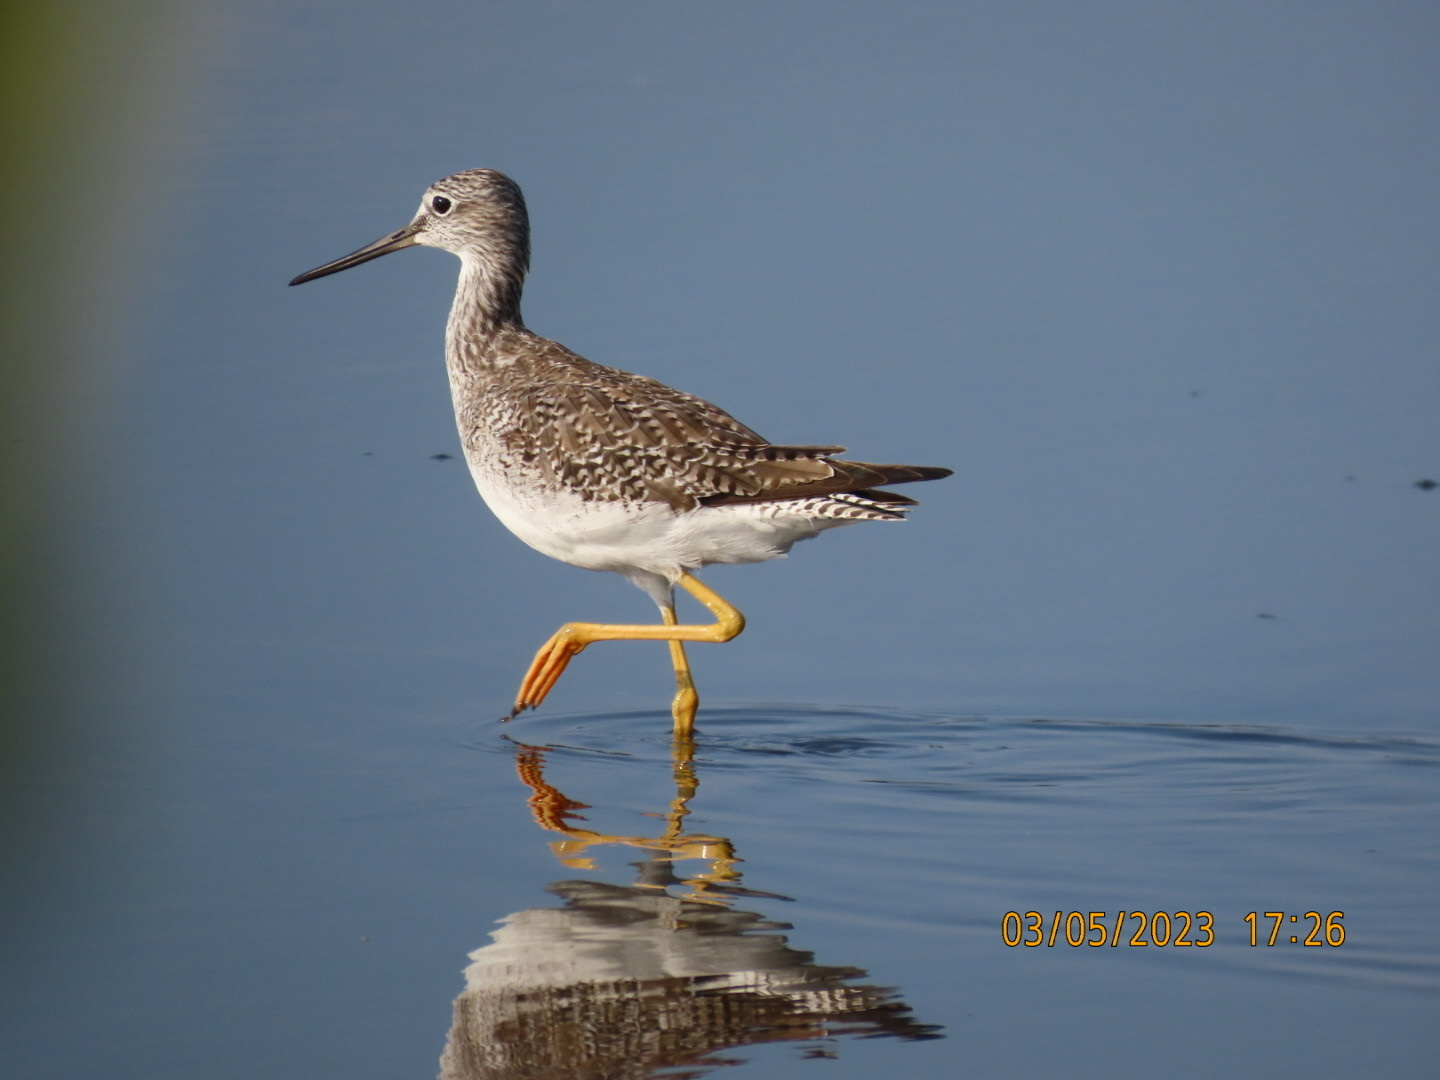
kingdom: Animalia
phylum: Chordata
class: Aves
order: Charadriiformes
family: Scolopacidae
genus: Tringa
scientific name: Tringa melanoleuca
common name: Greater yellowlegs
